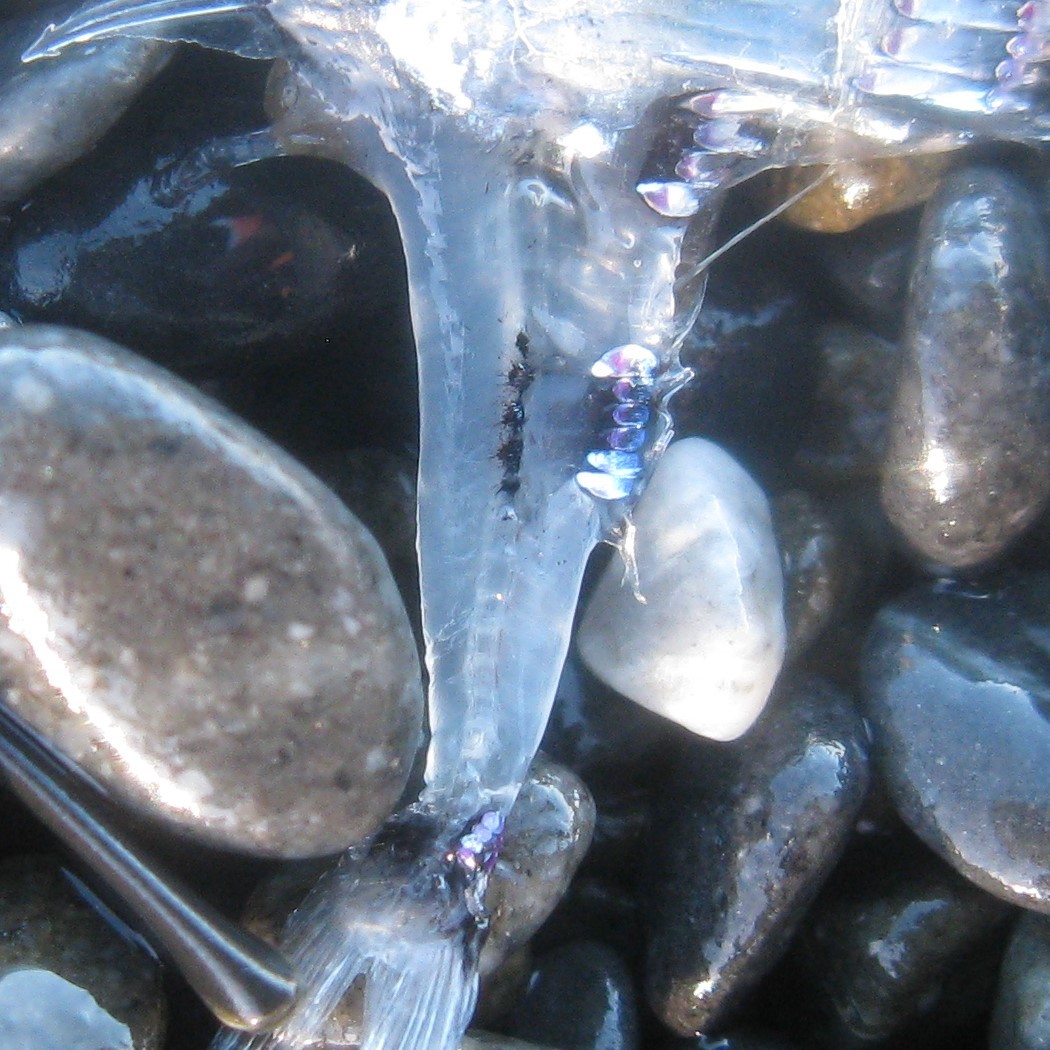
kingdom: Animalia
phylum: Chordata
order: Stomiiformes
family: Sternoptychidae
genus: Argyropelecus
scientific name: Argyropelecus hemigymnus
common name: Axefish
